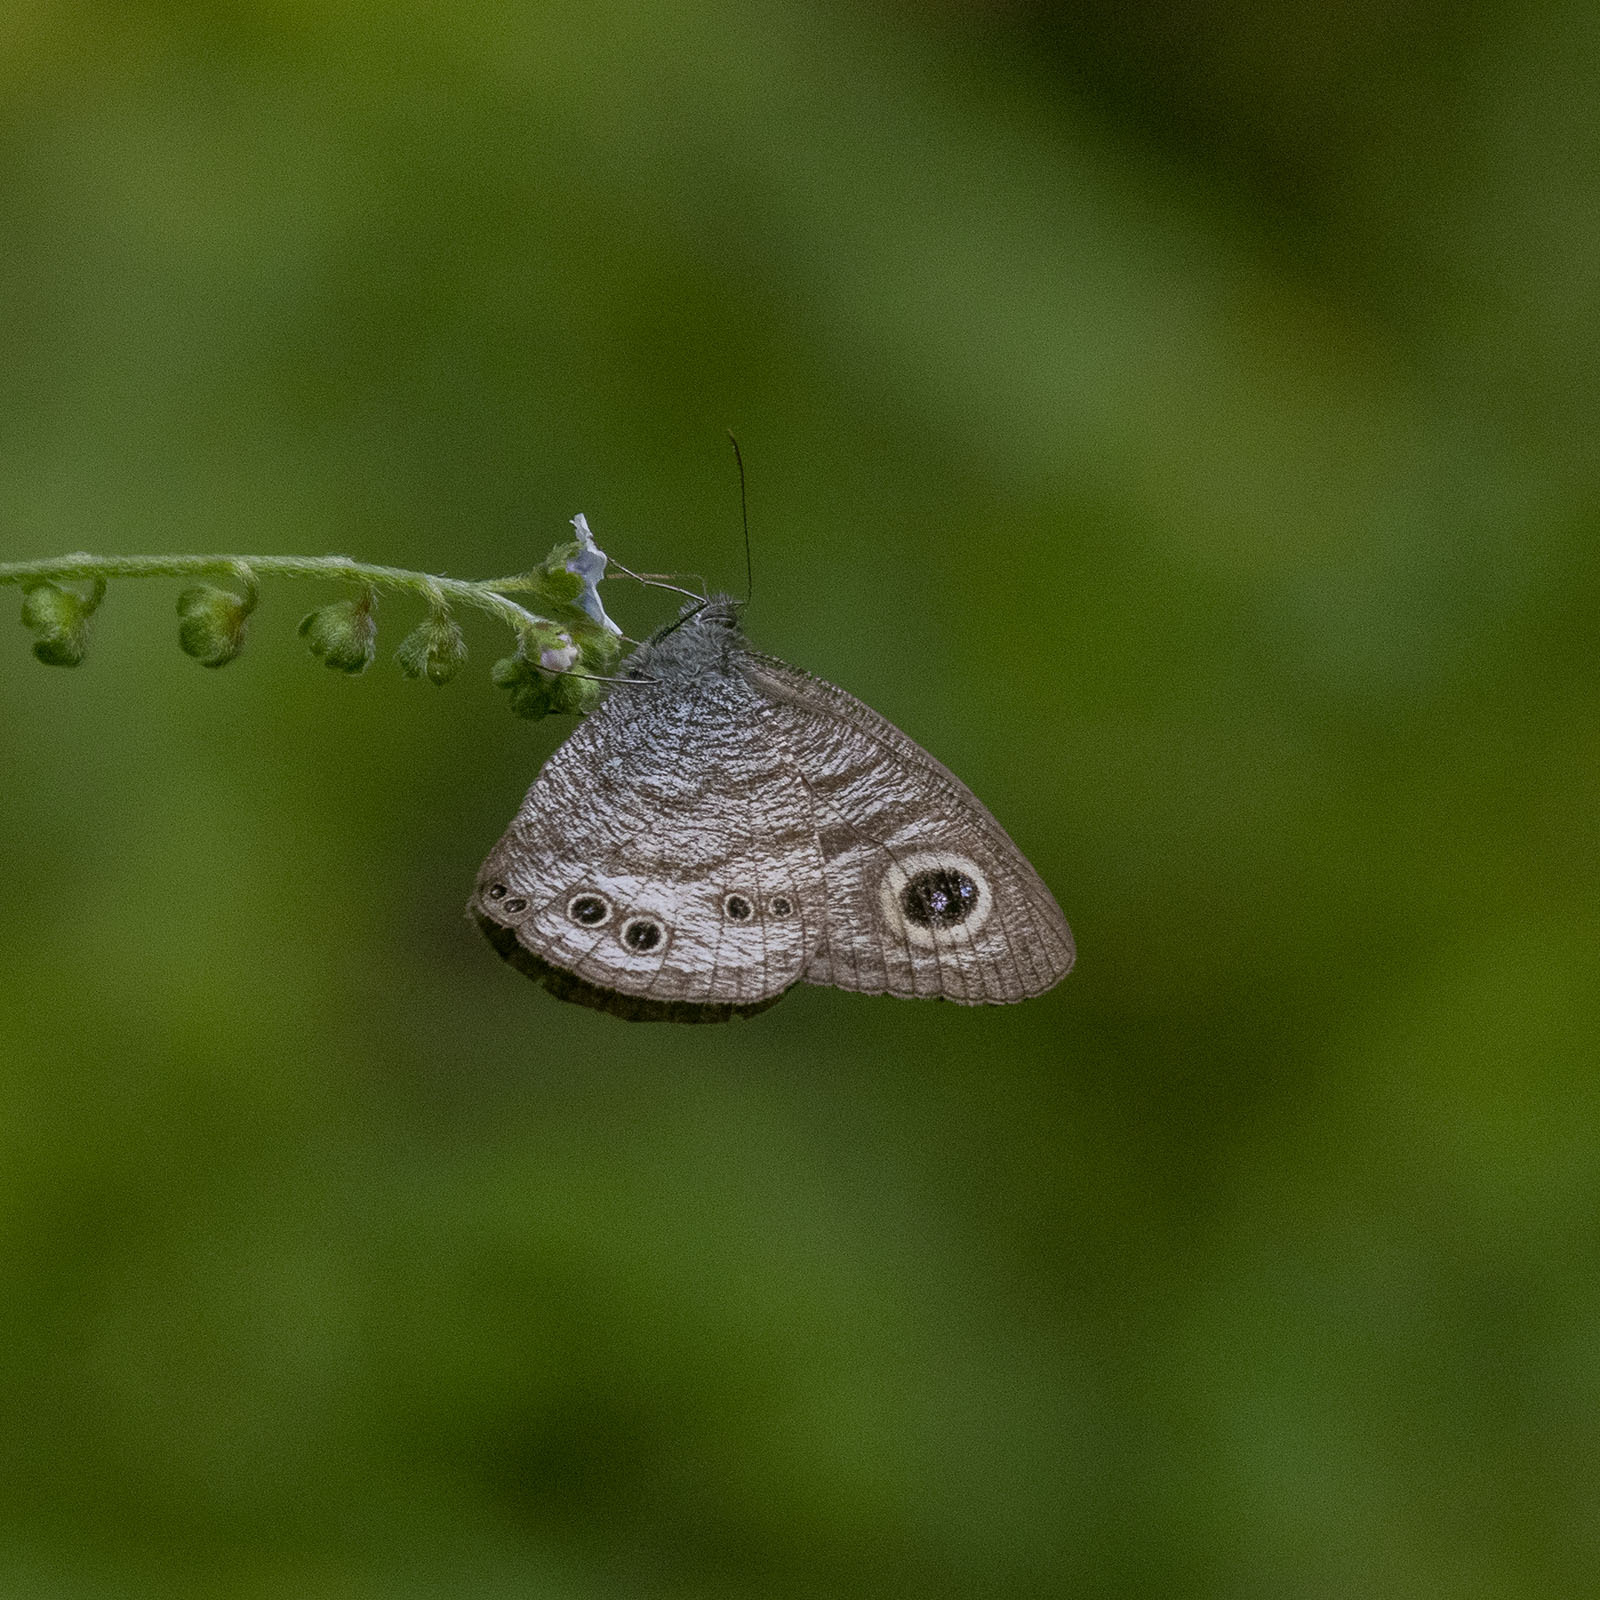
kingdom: Animalia
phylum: Arthropoda
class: Insecta
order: Lepidoptera
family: Nymphalidae
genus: Ypthima
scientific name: Ypthima baldus
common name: Common five-ring
